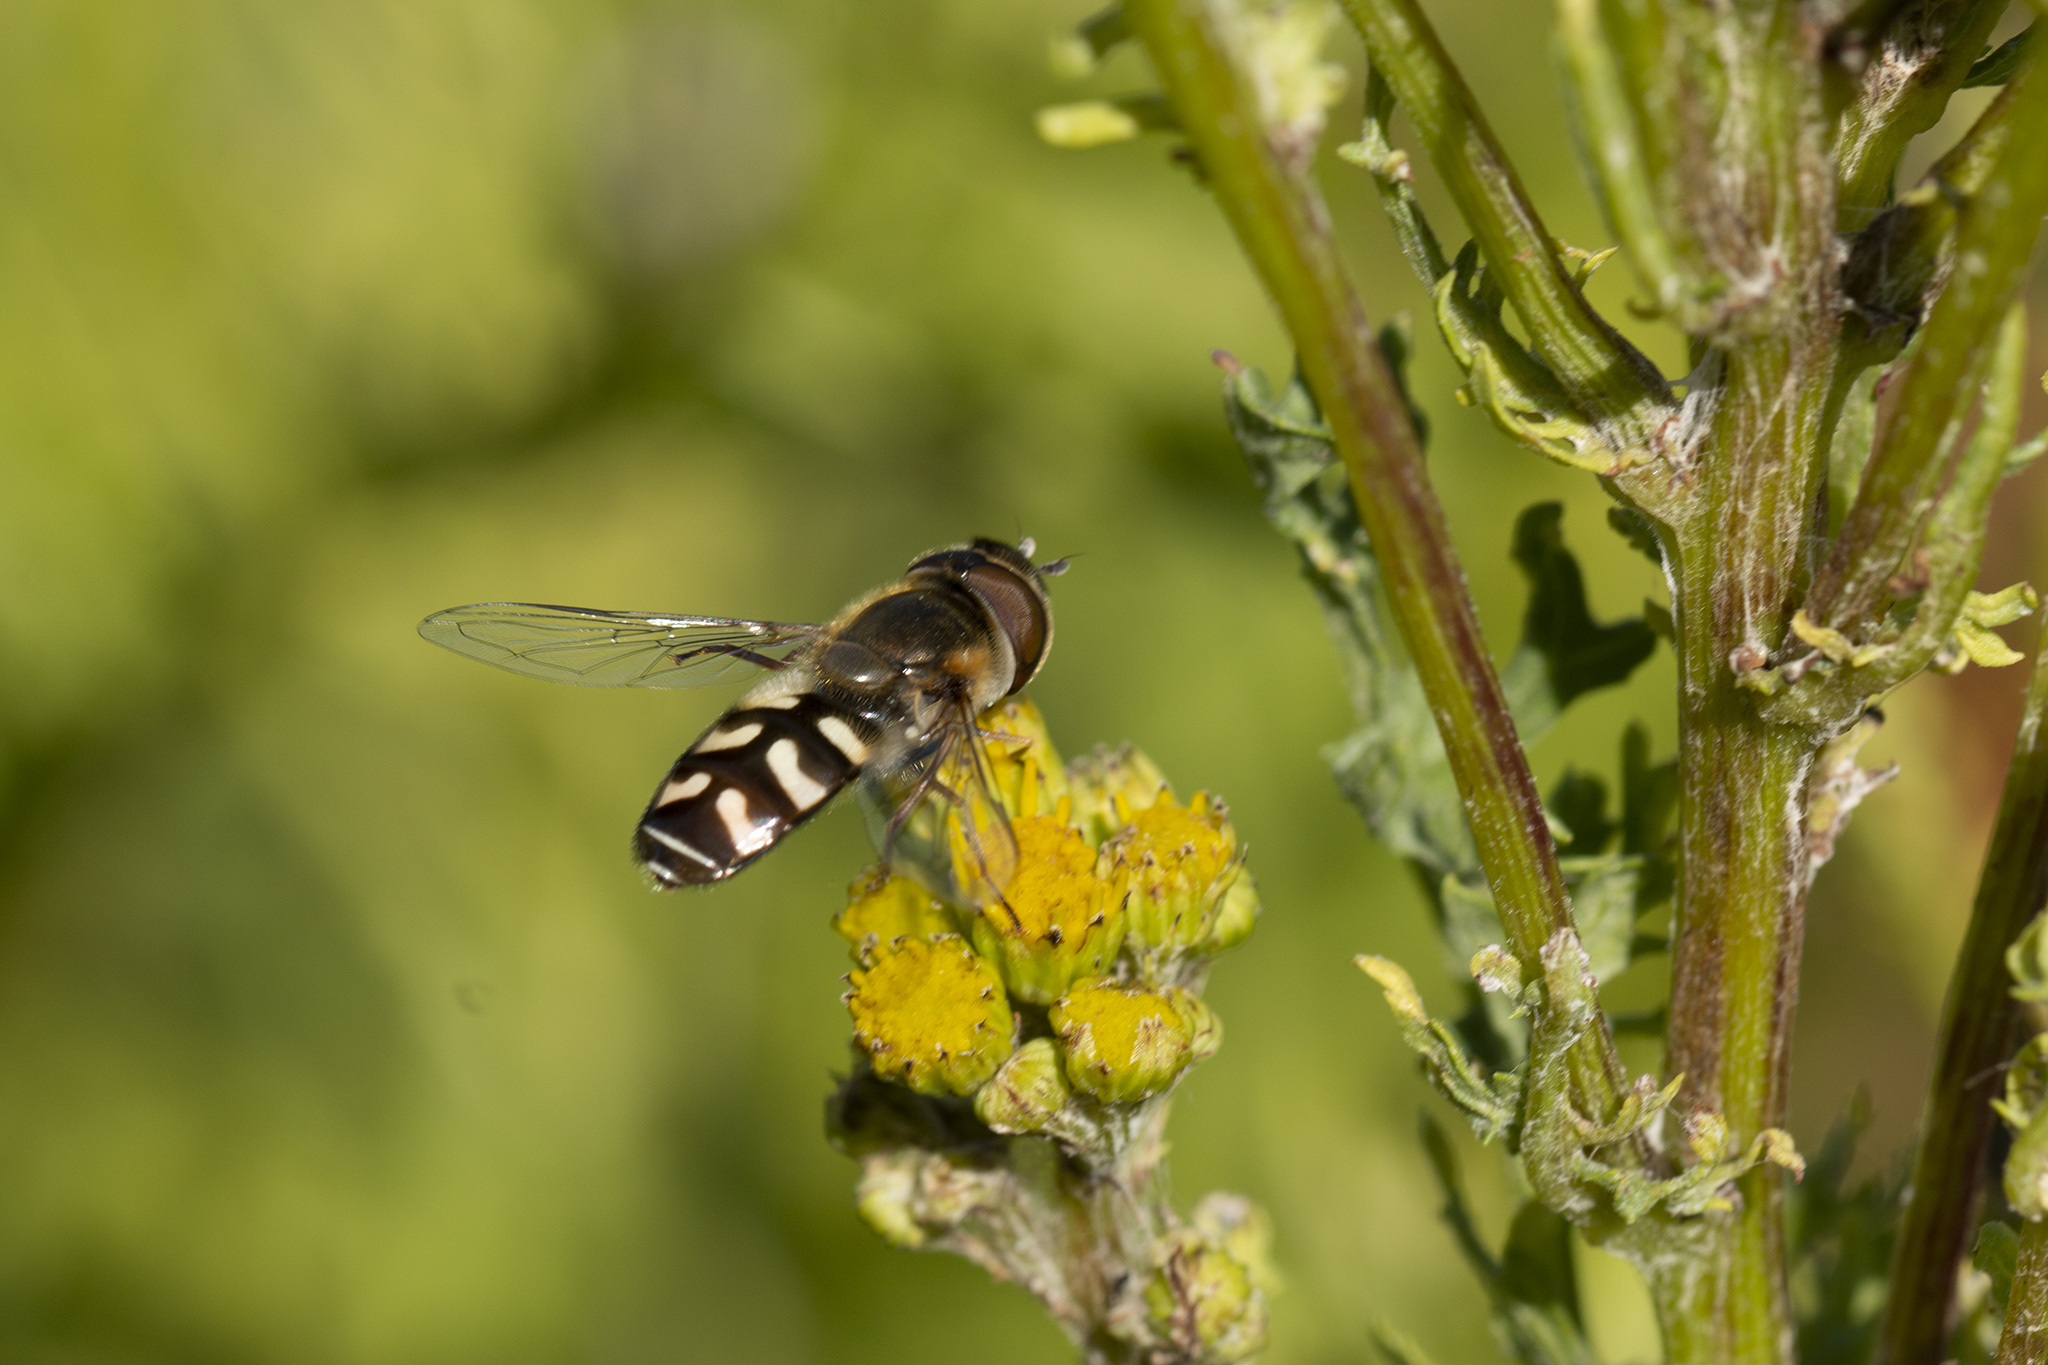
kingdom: Animalia
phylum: Arthropoda
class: Insecta
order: Diptera
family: Syrphidae
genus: Scaeva
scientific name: Scaeva pyrastri
